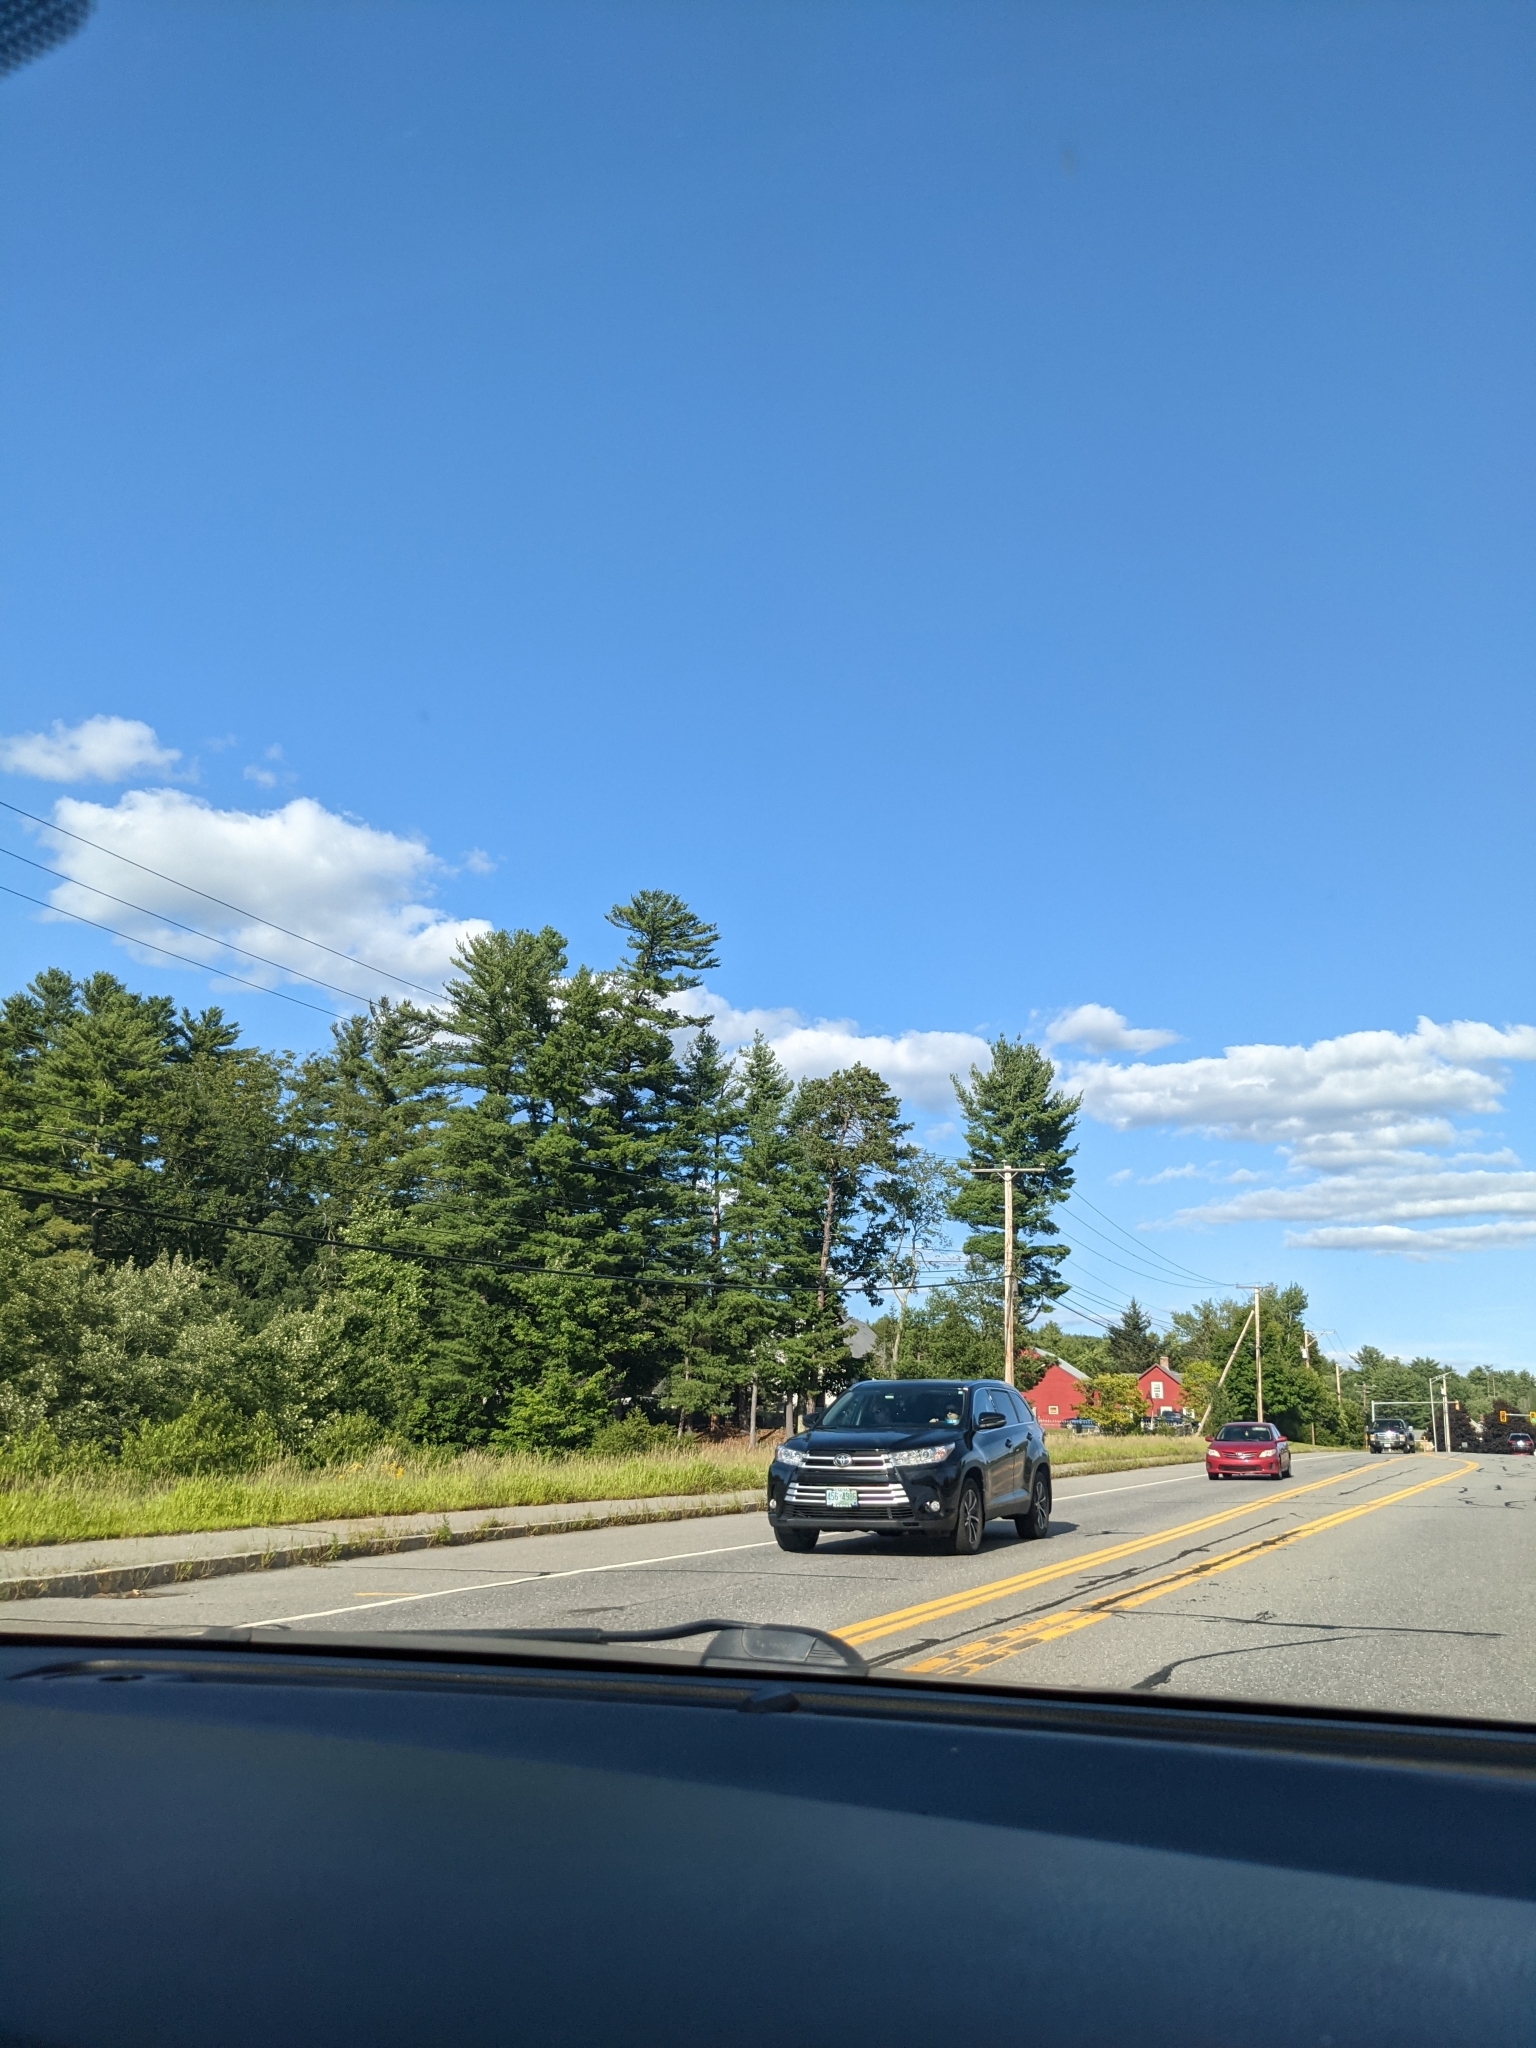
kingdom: Plantae
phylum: Tracheophyta
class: Pinopsida
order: Pinales
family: Pinaceae
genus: Pinus
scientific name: Pinus strobus
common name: Weymouth pine
